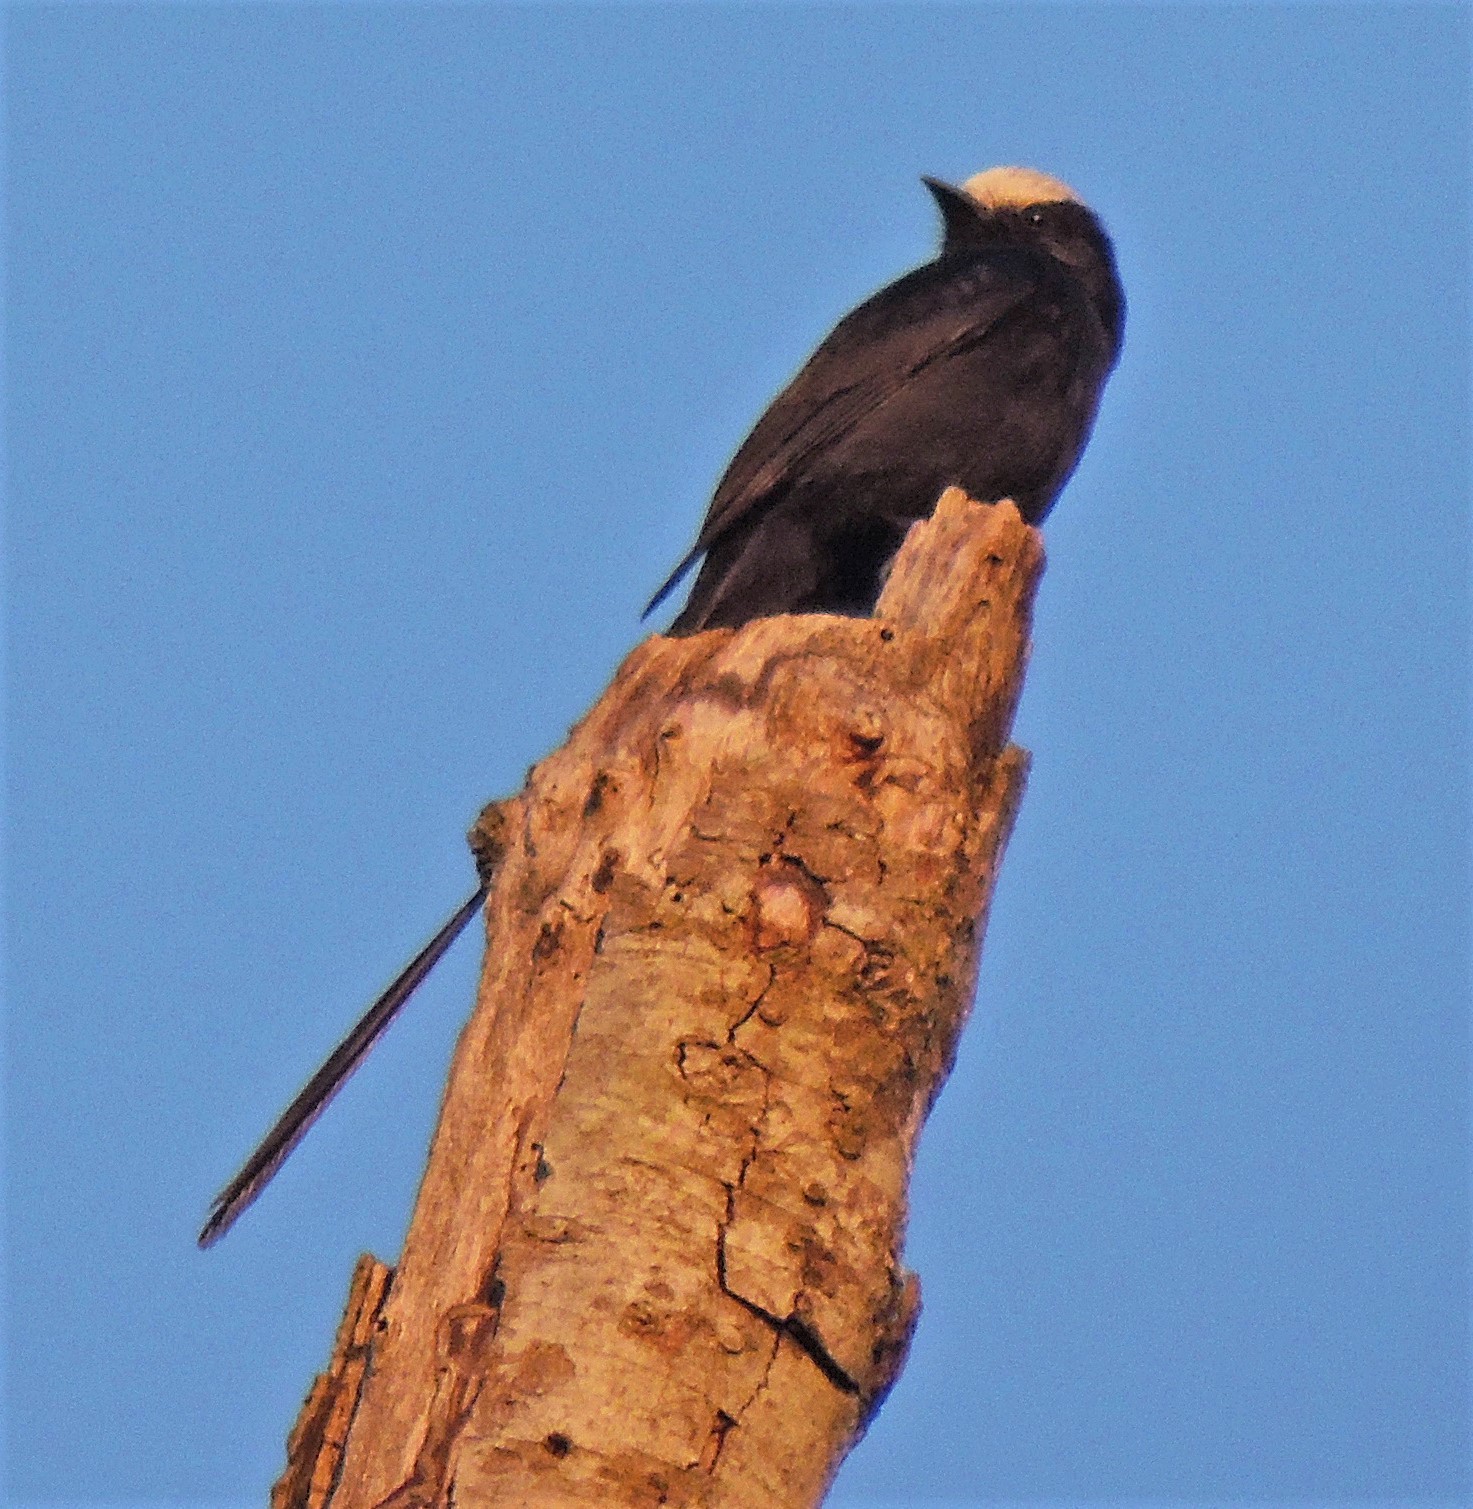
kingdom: Animalia
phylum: Chordata
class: Aves
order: Passeriformes
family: Tyrannidae
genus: Colonia
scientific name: Colonia colonus
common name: Long-tailed tyrant
